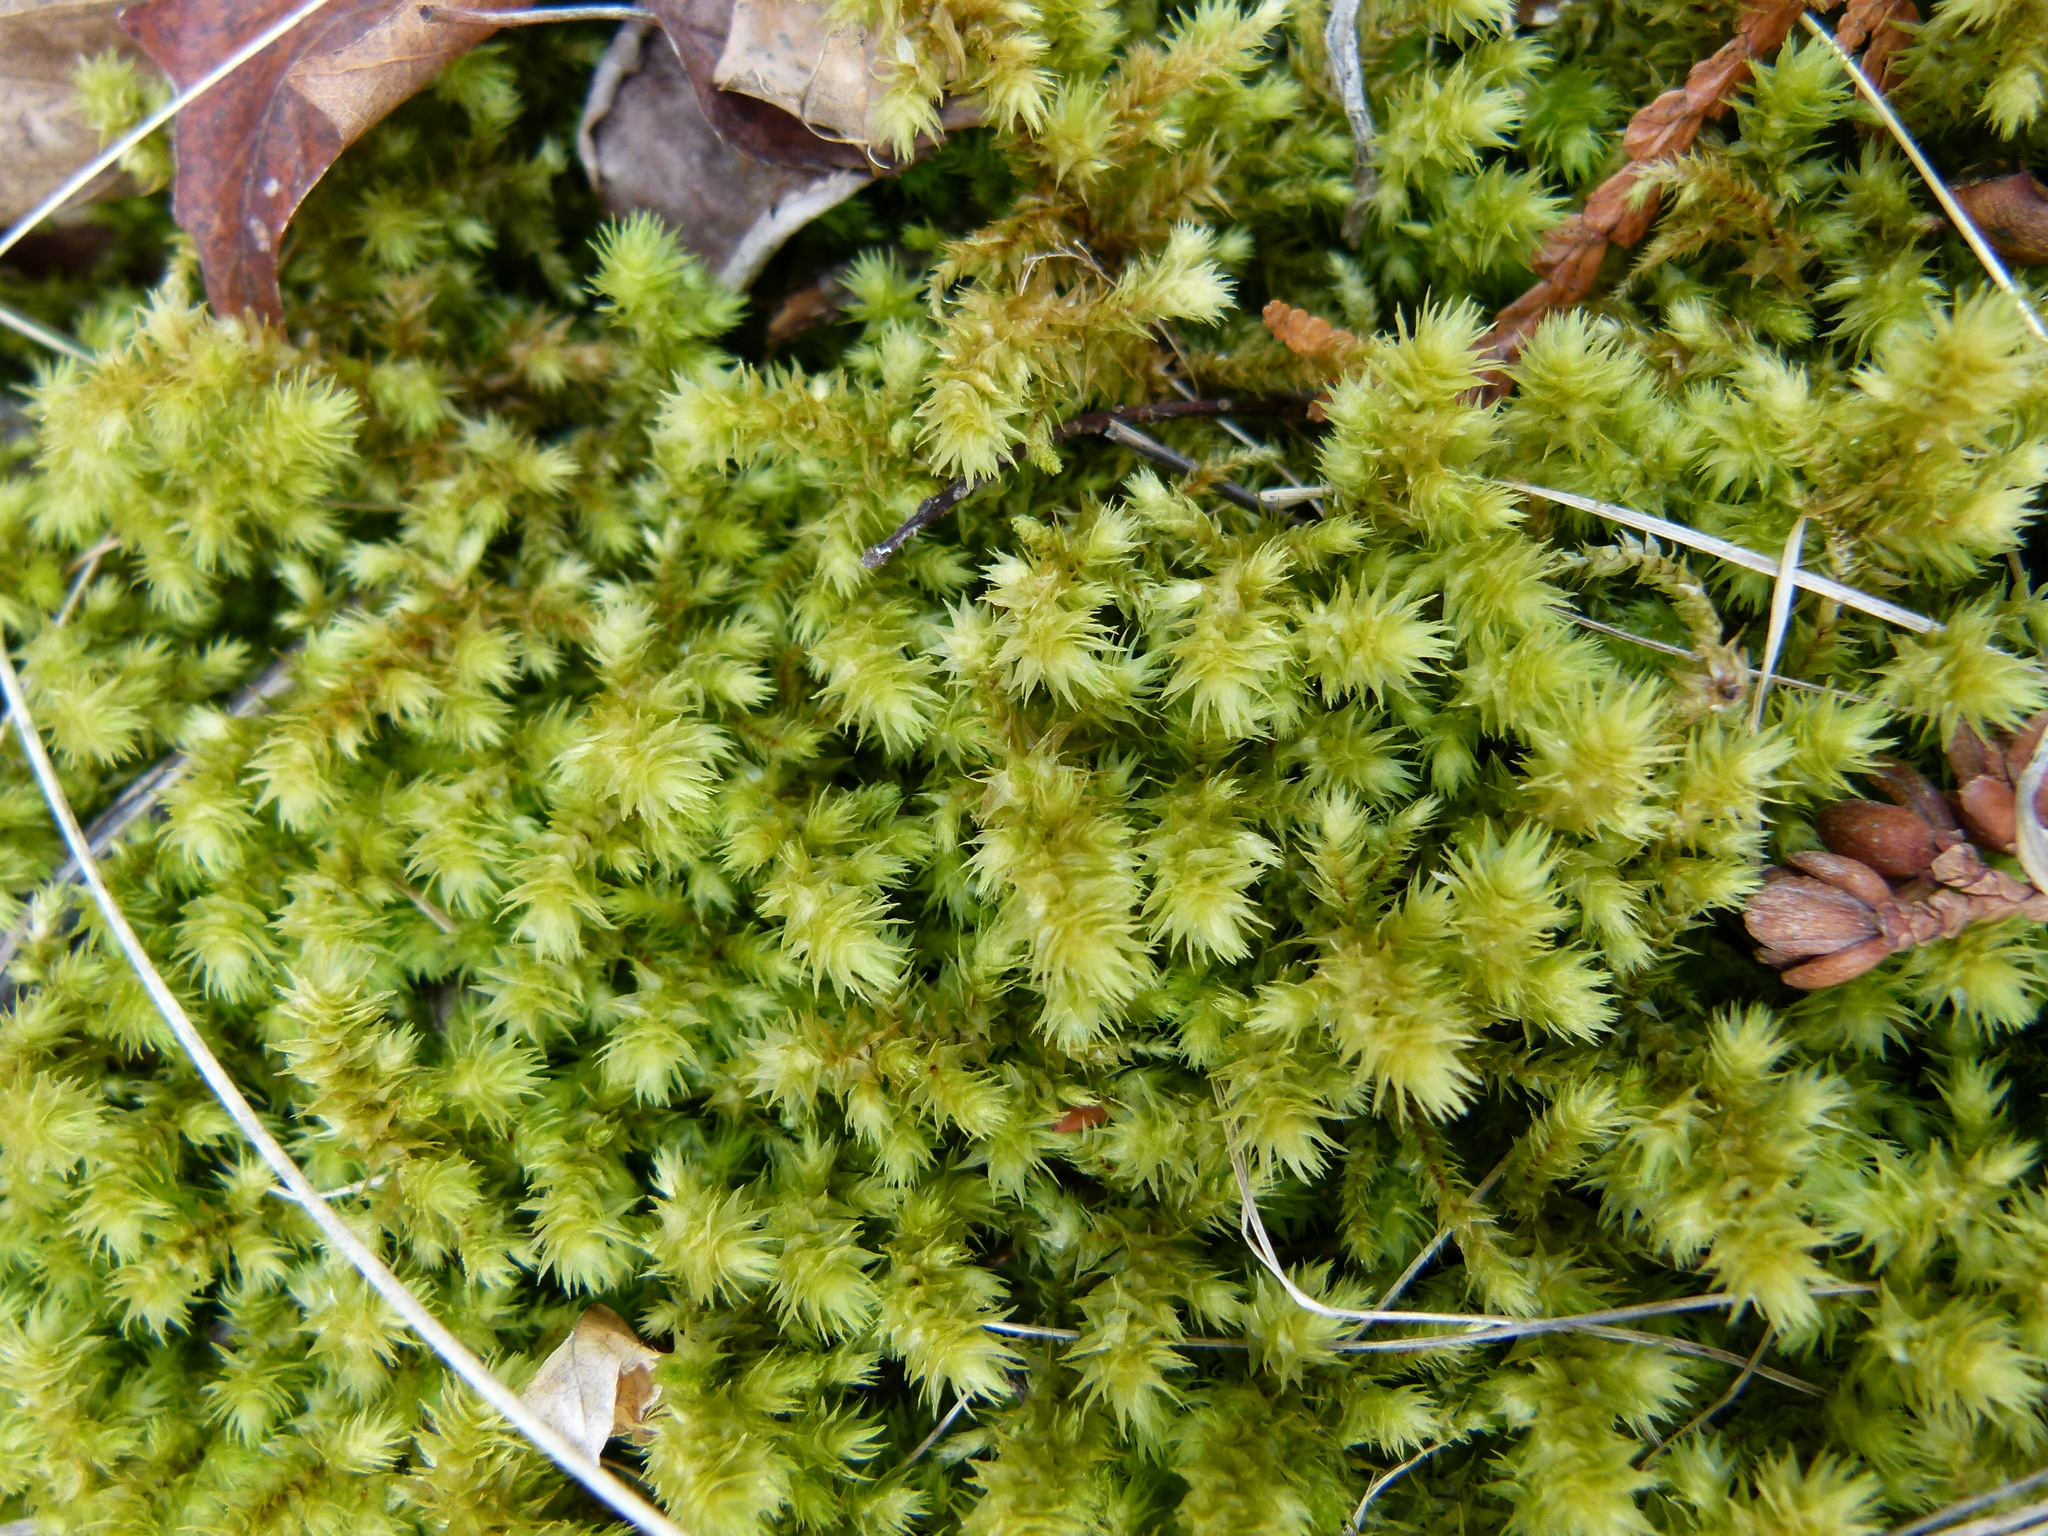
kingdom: Plantae
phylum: Bryophyta
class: Bryopsida
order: Hypnales
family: Hylocomiaceae
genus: Hylocomiadelphus
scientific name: Hylocomiadelphus triquetrus
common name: Rough goose neck moss
